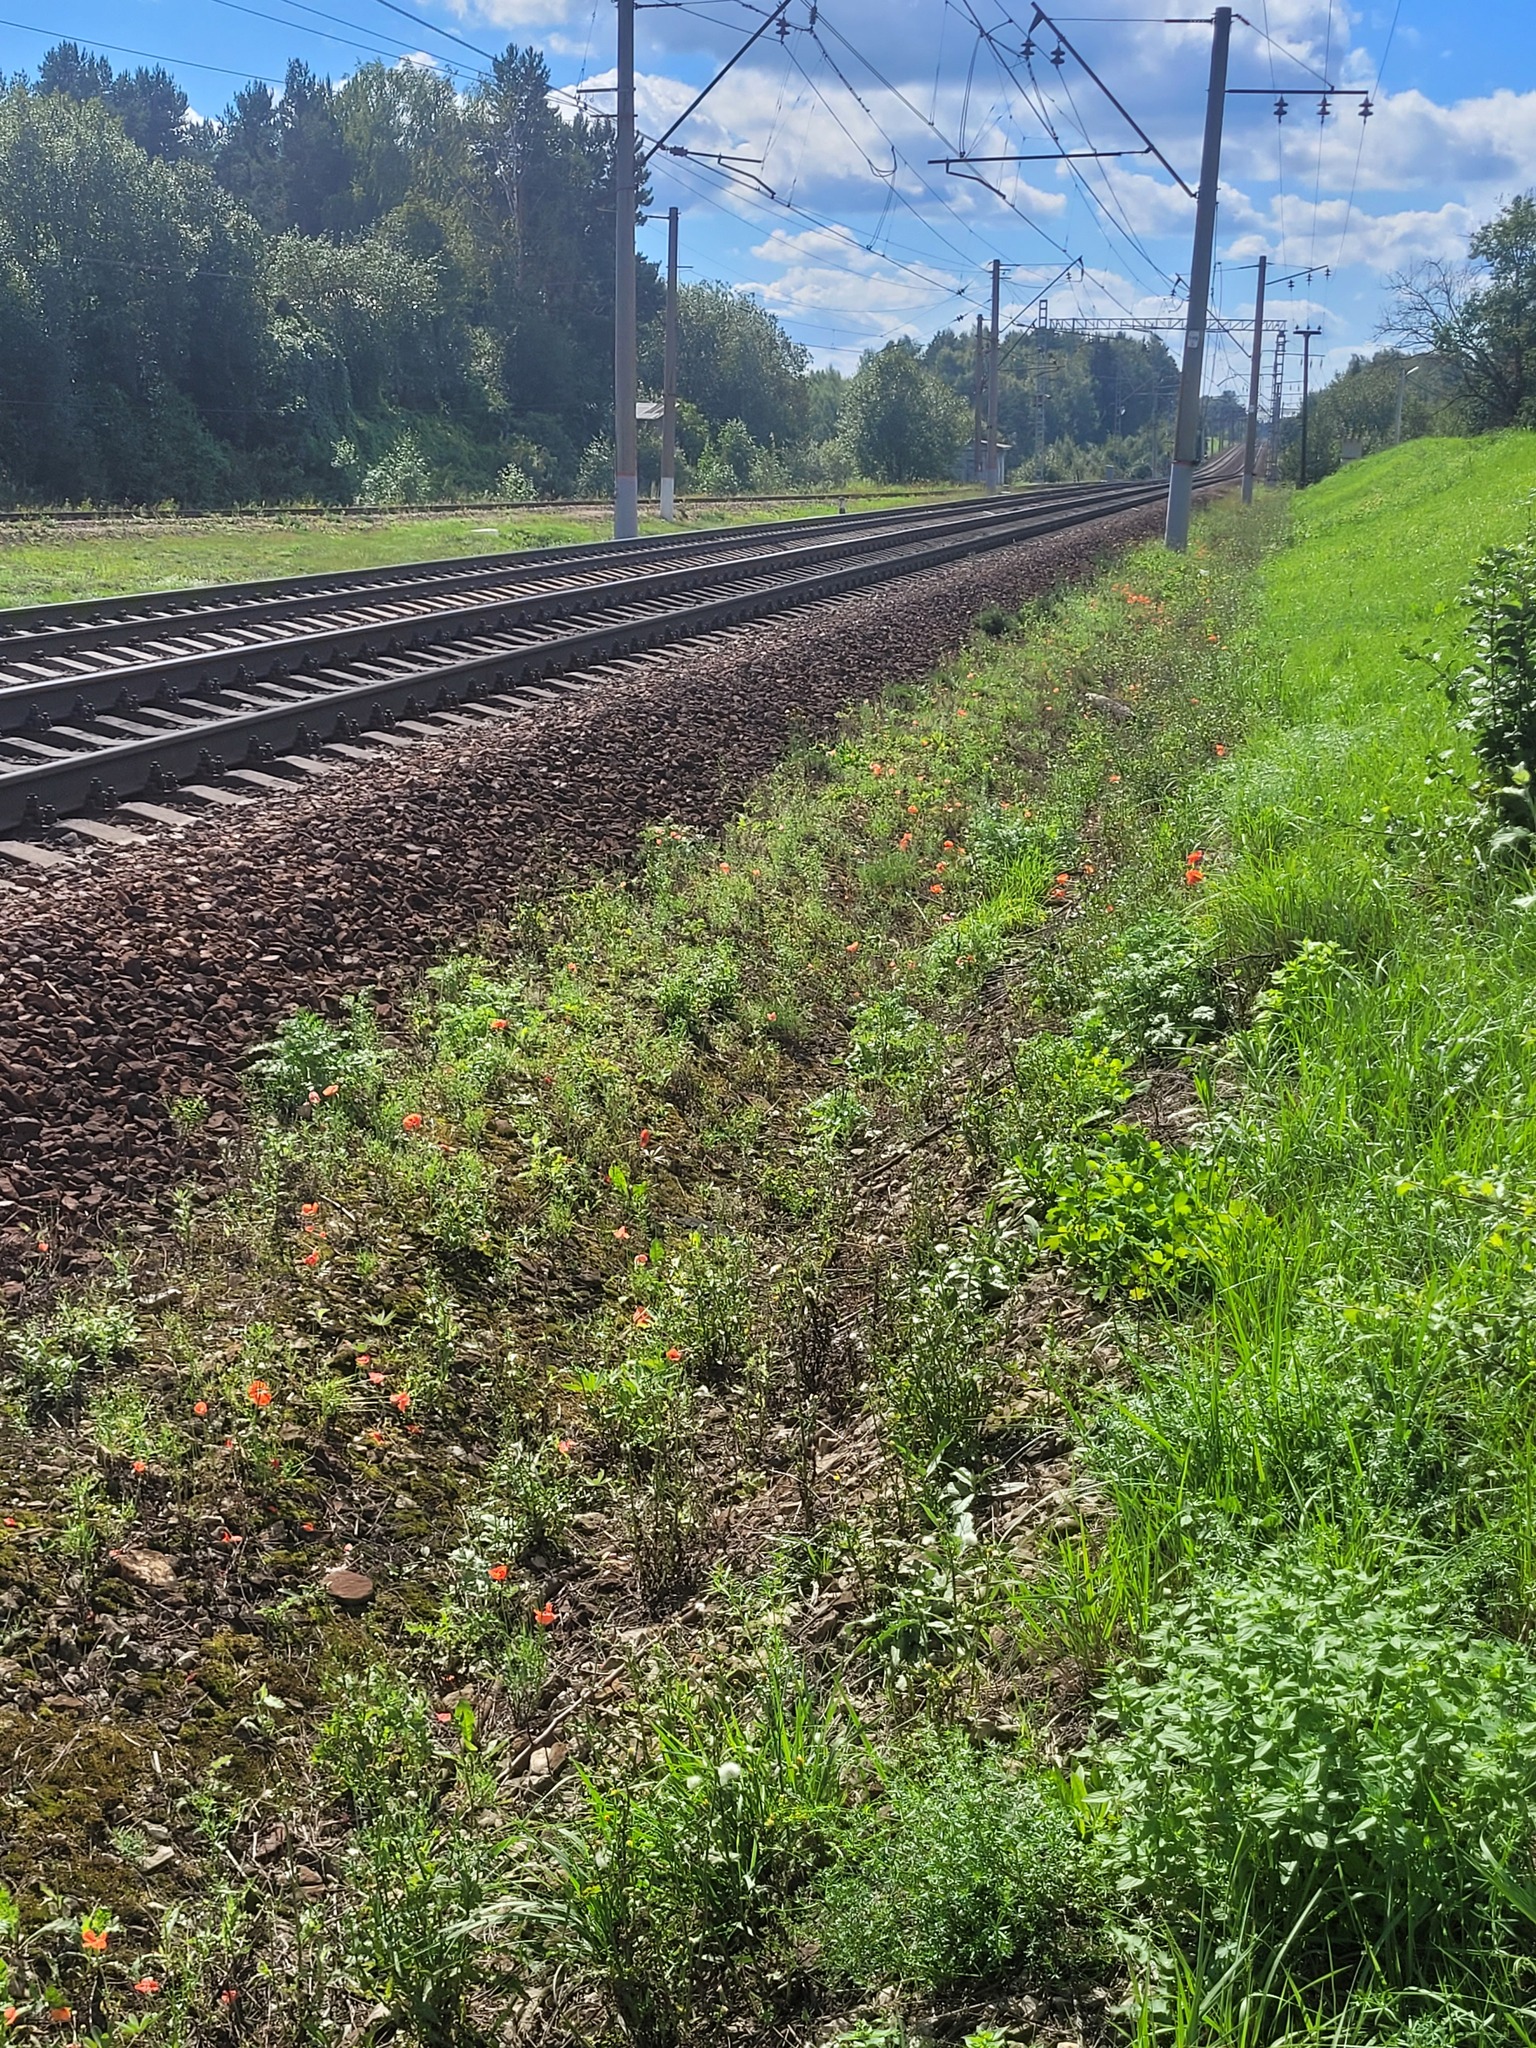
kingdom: Plantae
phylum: Tracheophyta
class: Magnoliopsida
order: Ranunculales
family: Papaveraceae
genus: Papaver
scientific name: Papaver rhoeas
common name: Corn poppy
